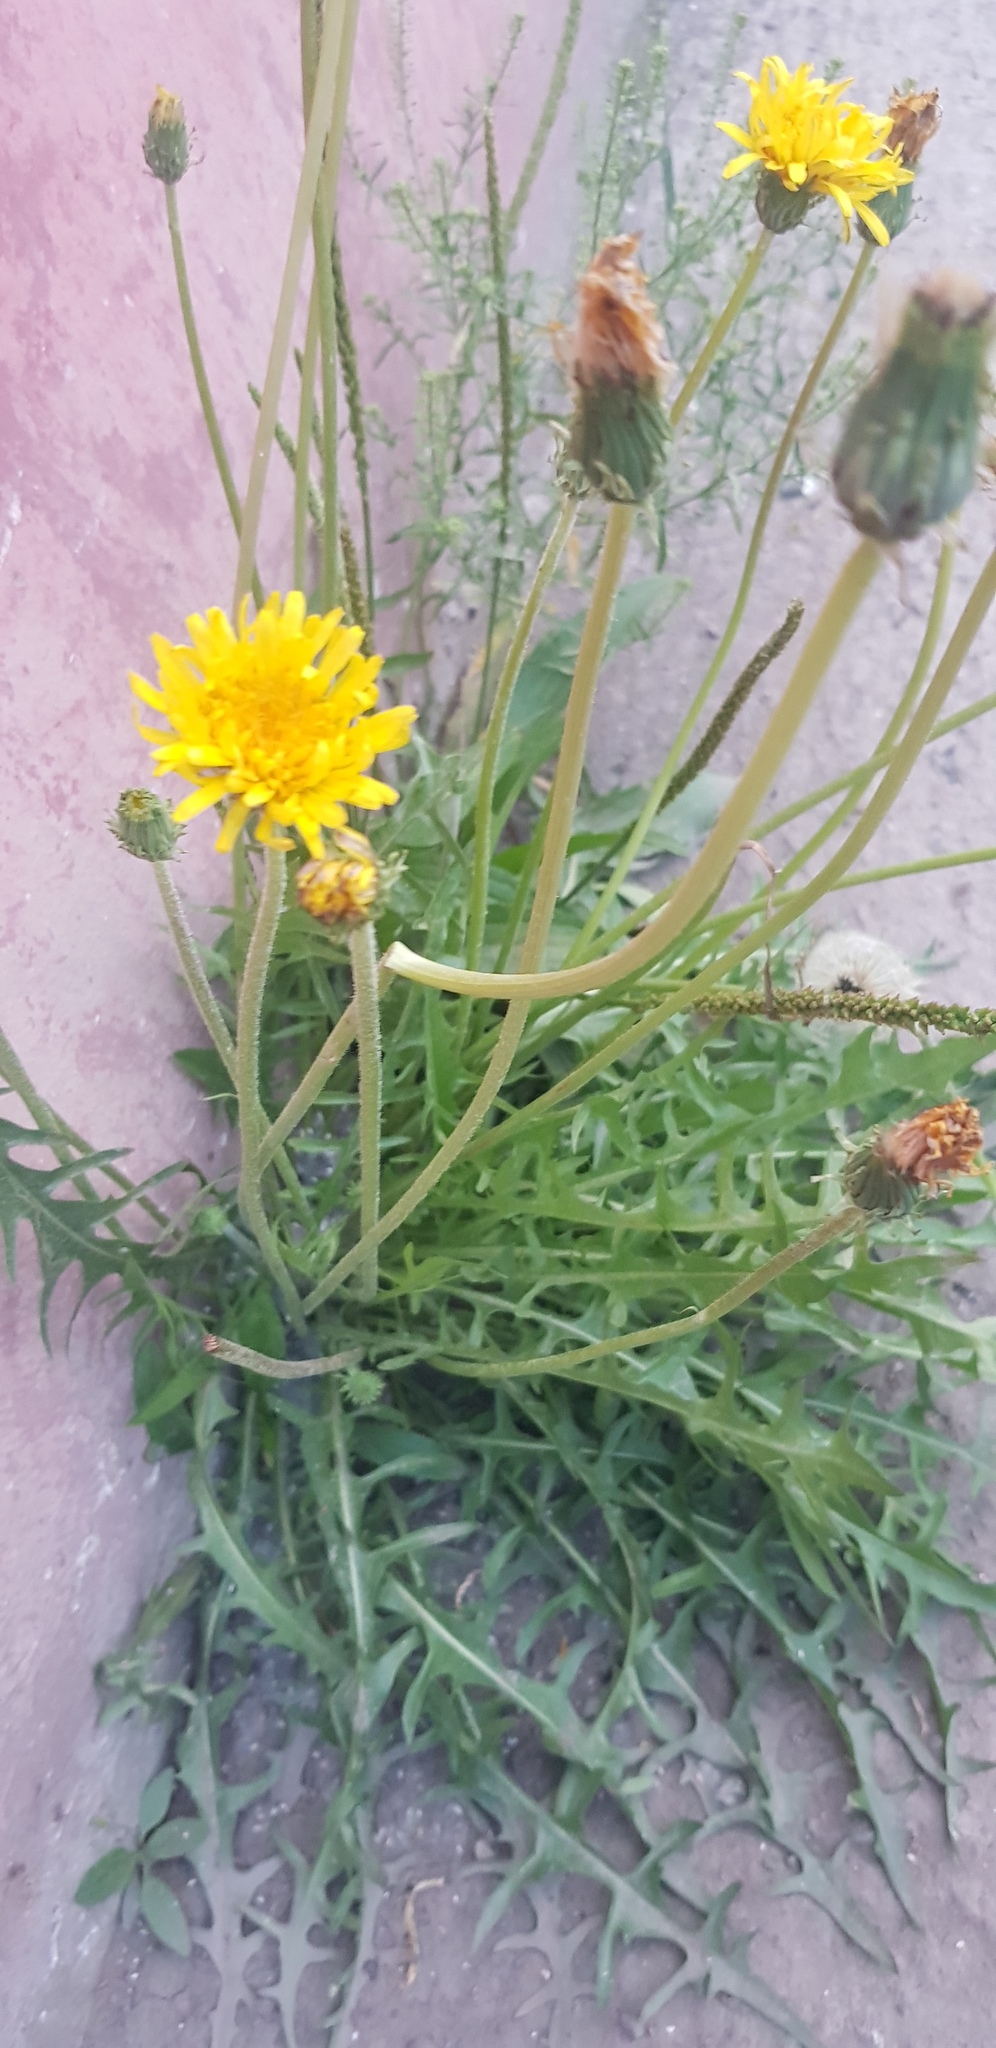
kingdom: Plantae
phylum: Tracheophyta
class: Magnoliopsida
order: Asterales
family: Asteraceae
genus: Taraxacum
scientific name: Taraxacum officinale
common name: Common dandelion
